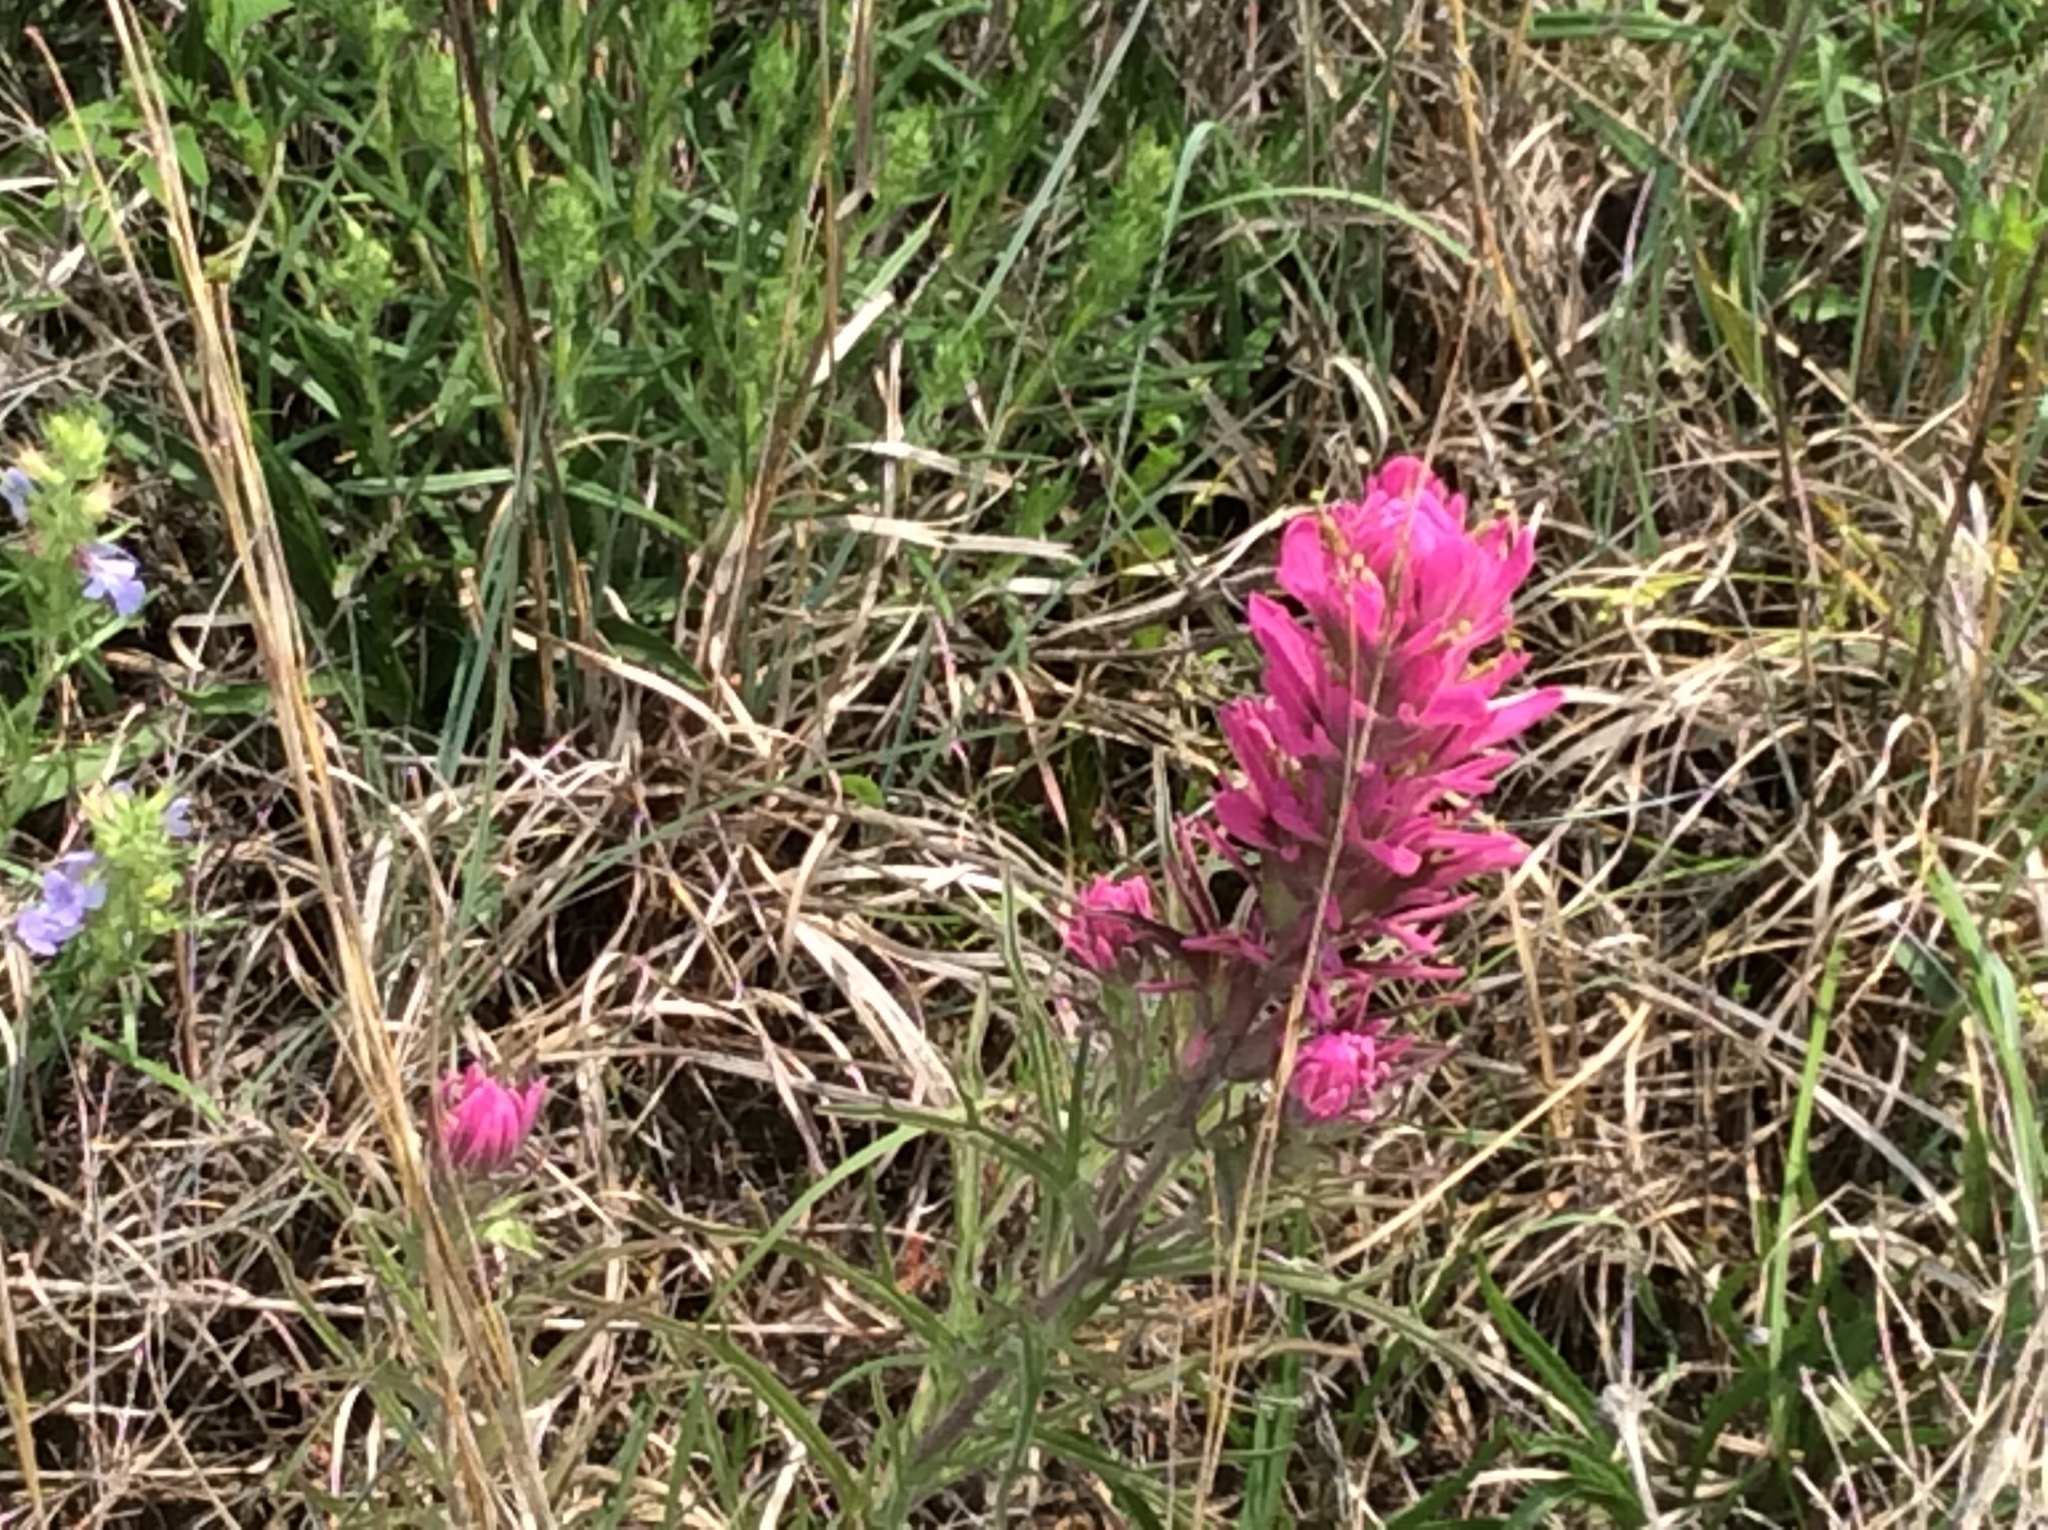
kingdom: Plantae
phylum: Tracheophyta
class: Magnoliopsida
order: Lamiales
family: Orobanchaceae
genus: Castilleja
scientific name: Castilleja purpurea
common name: Plains paintbrush
